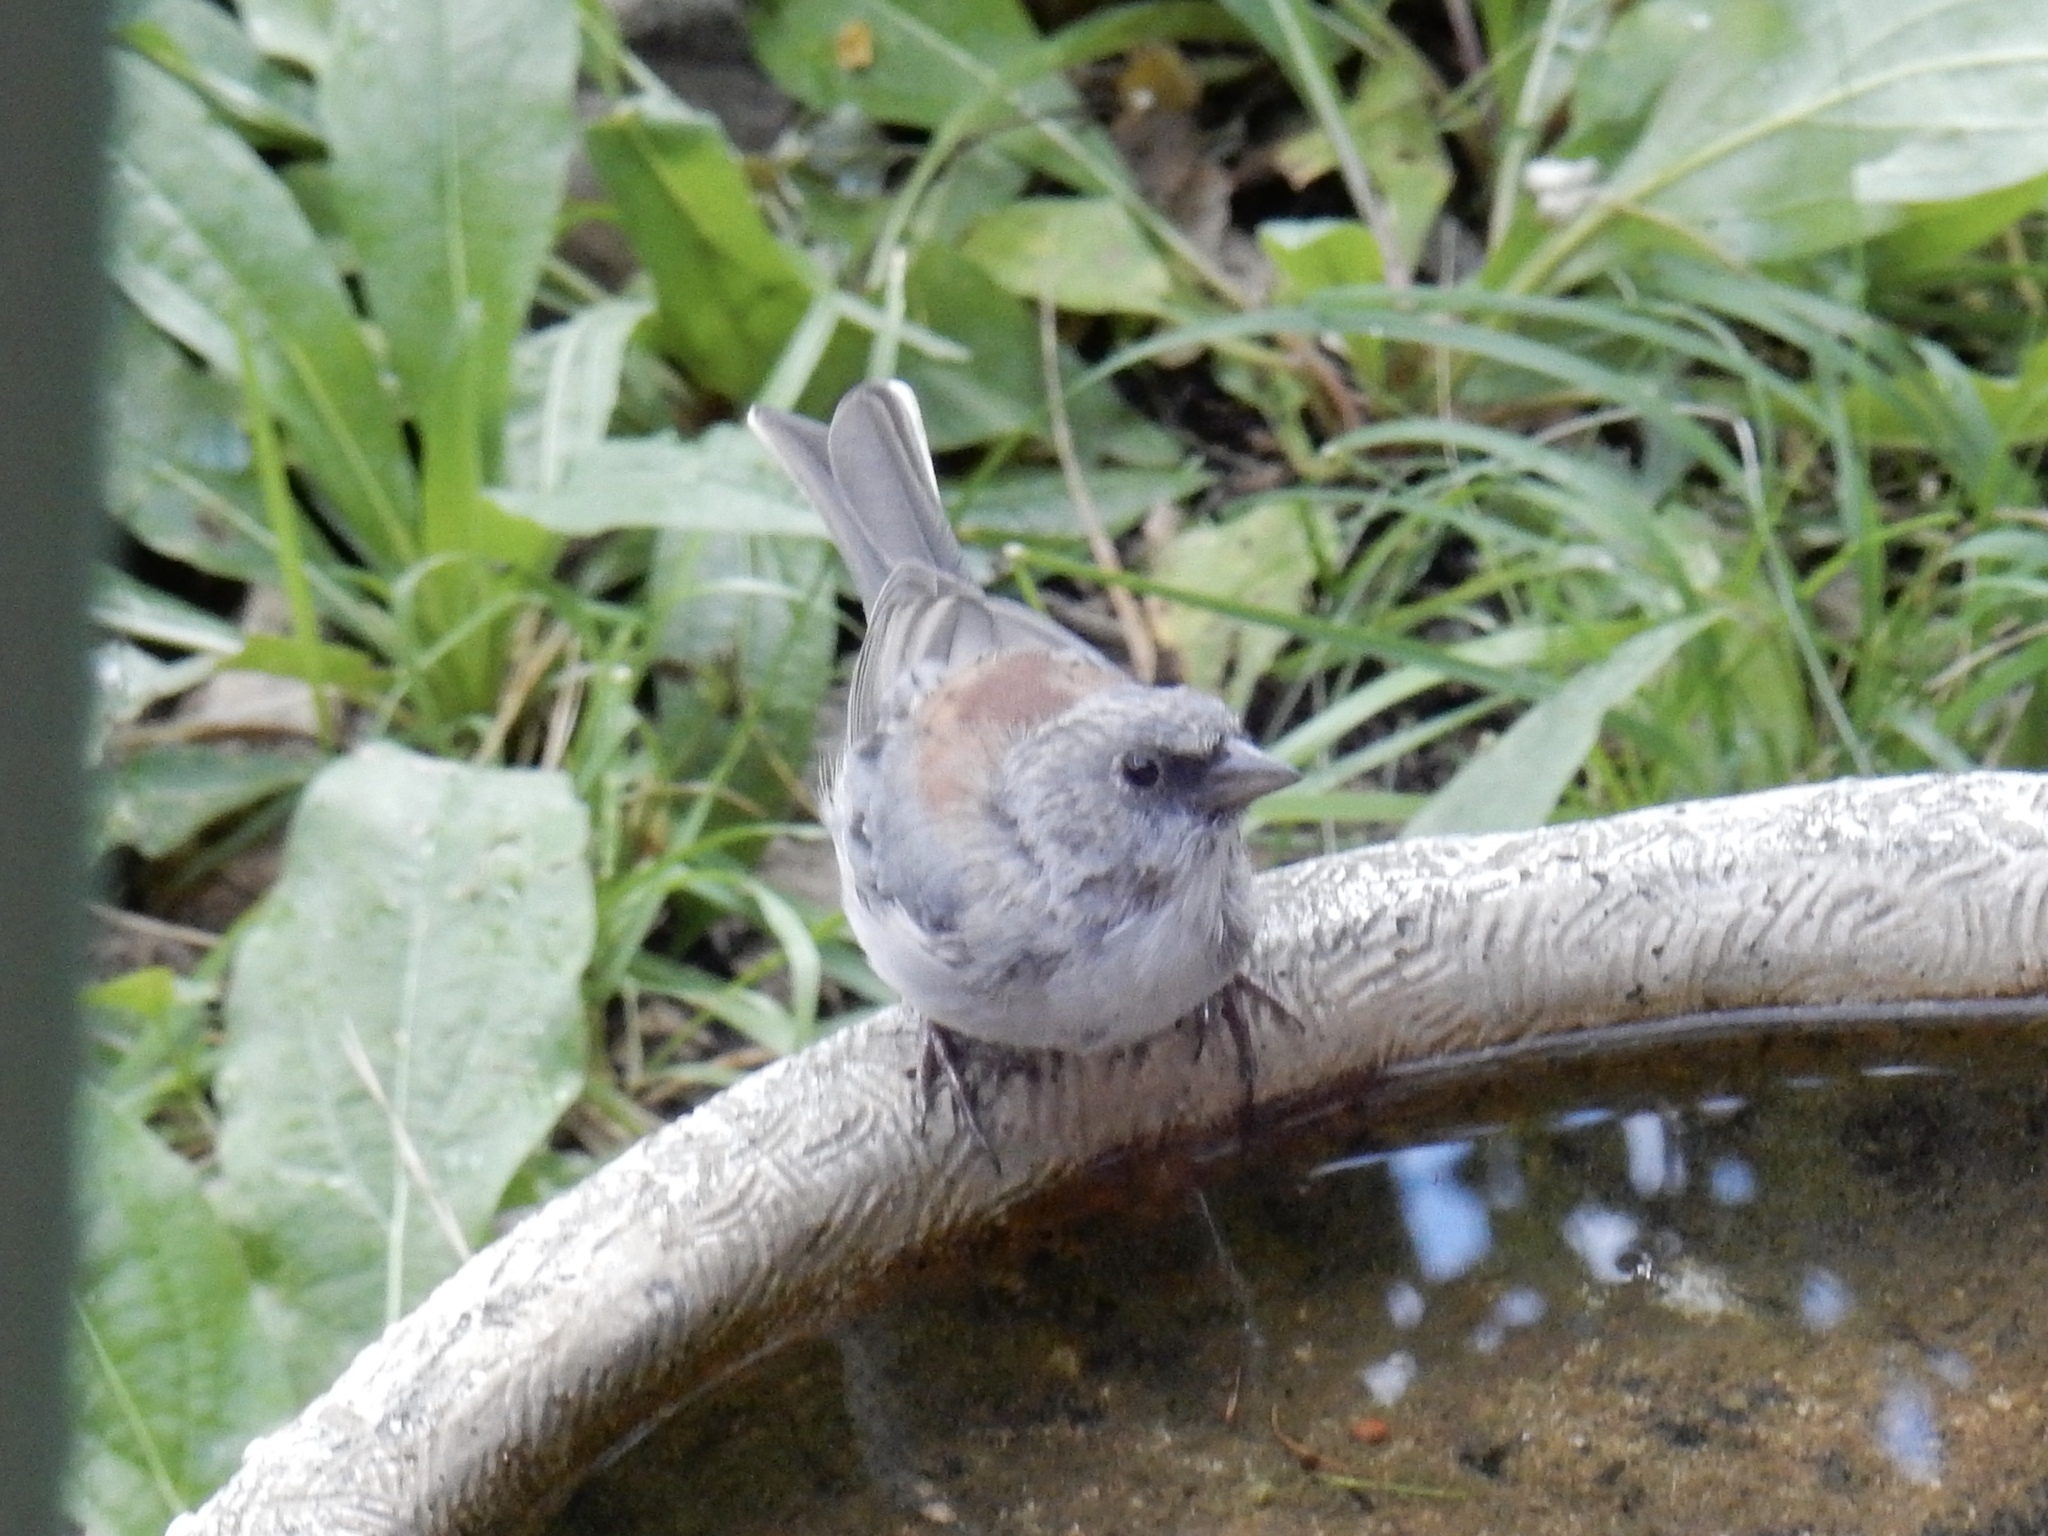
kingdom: Animalia
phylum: Chordata
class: Aves
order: Passeriformes
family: Passerellidae
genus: Junco
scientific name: Junco hyemalis
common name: Dark-eyed junco
